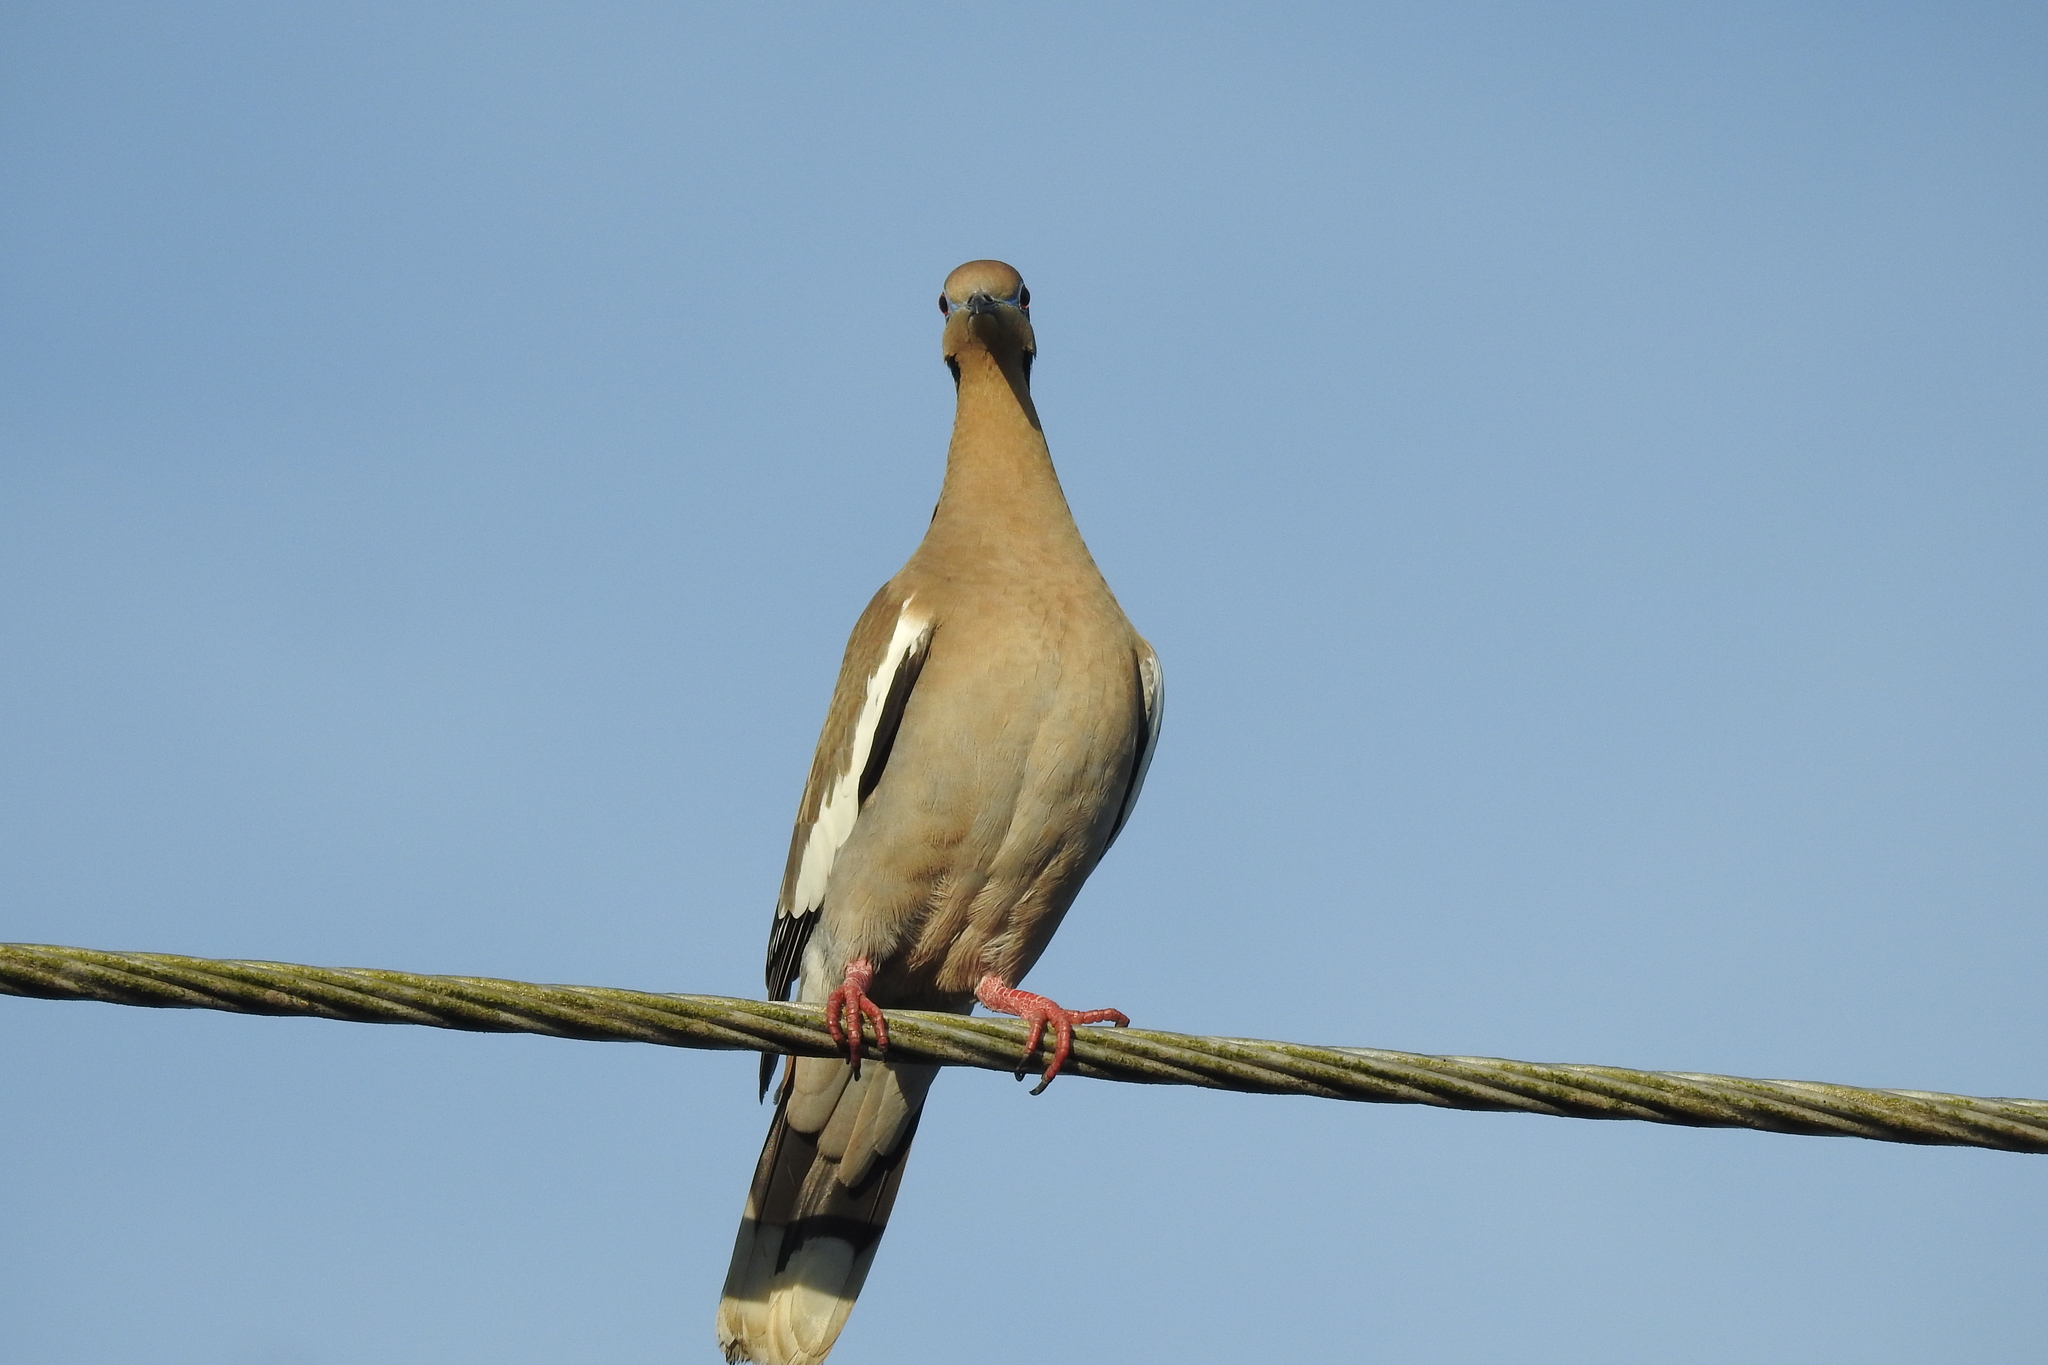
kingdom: Animalia
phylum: Chordata
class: Aves
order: Columbiformes
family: Columbidae
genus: Zenaida
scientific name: Zenaida asiatica
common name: White-winged dove
